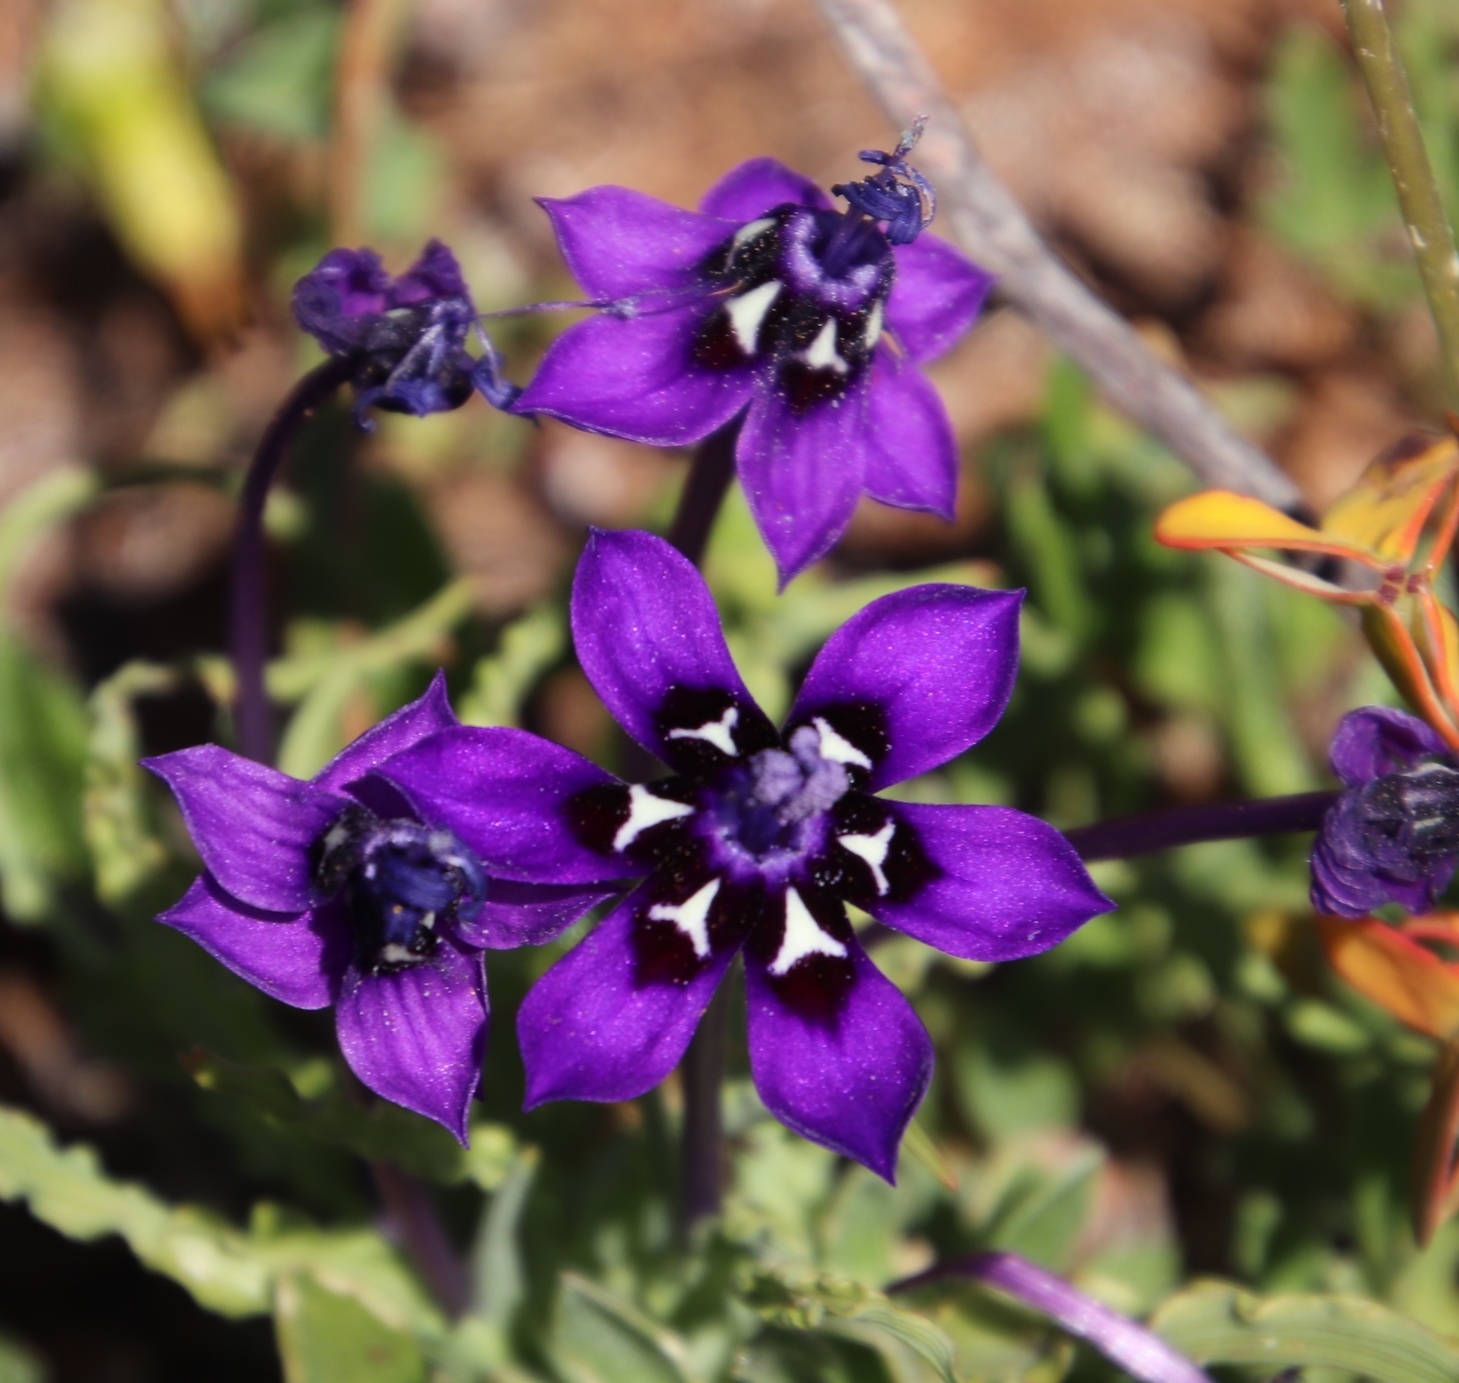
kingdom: Plantae
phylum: Tracheophyta
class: Liliopsida
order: Asparagales
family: Iridaceae
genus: Lapeirousia
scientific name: Lapeirousia oreogena
